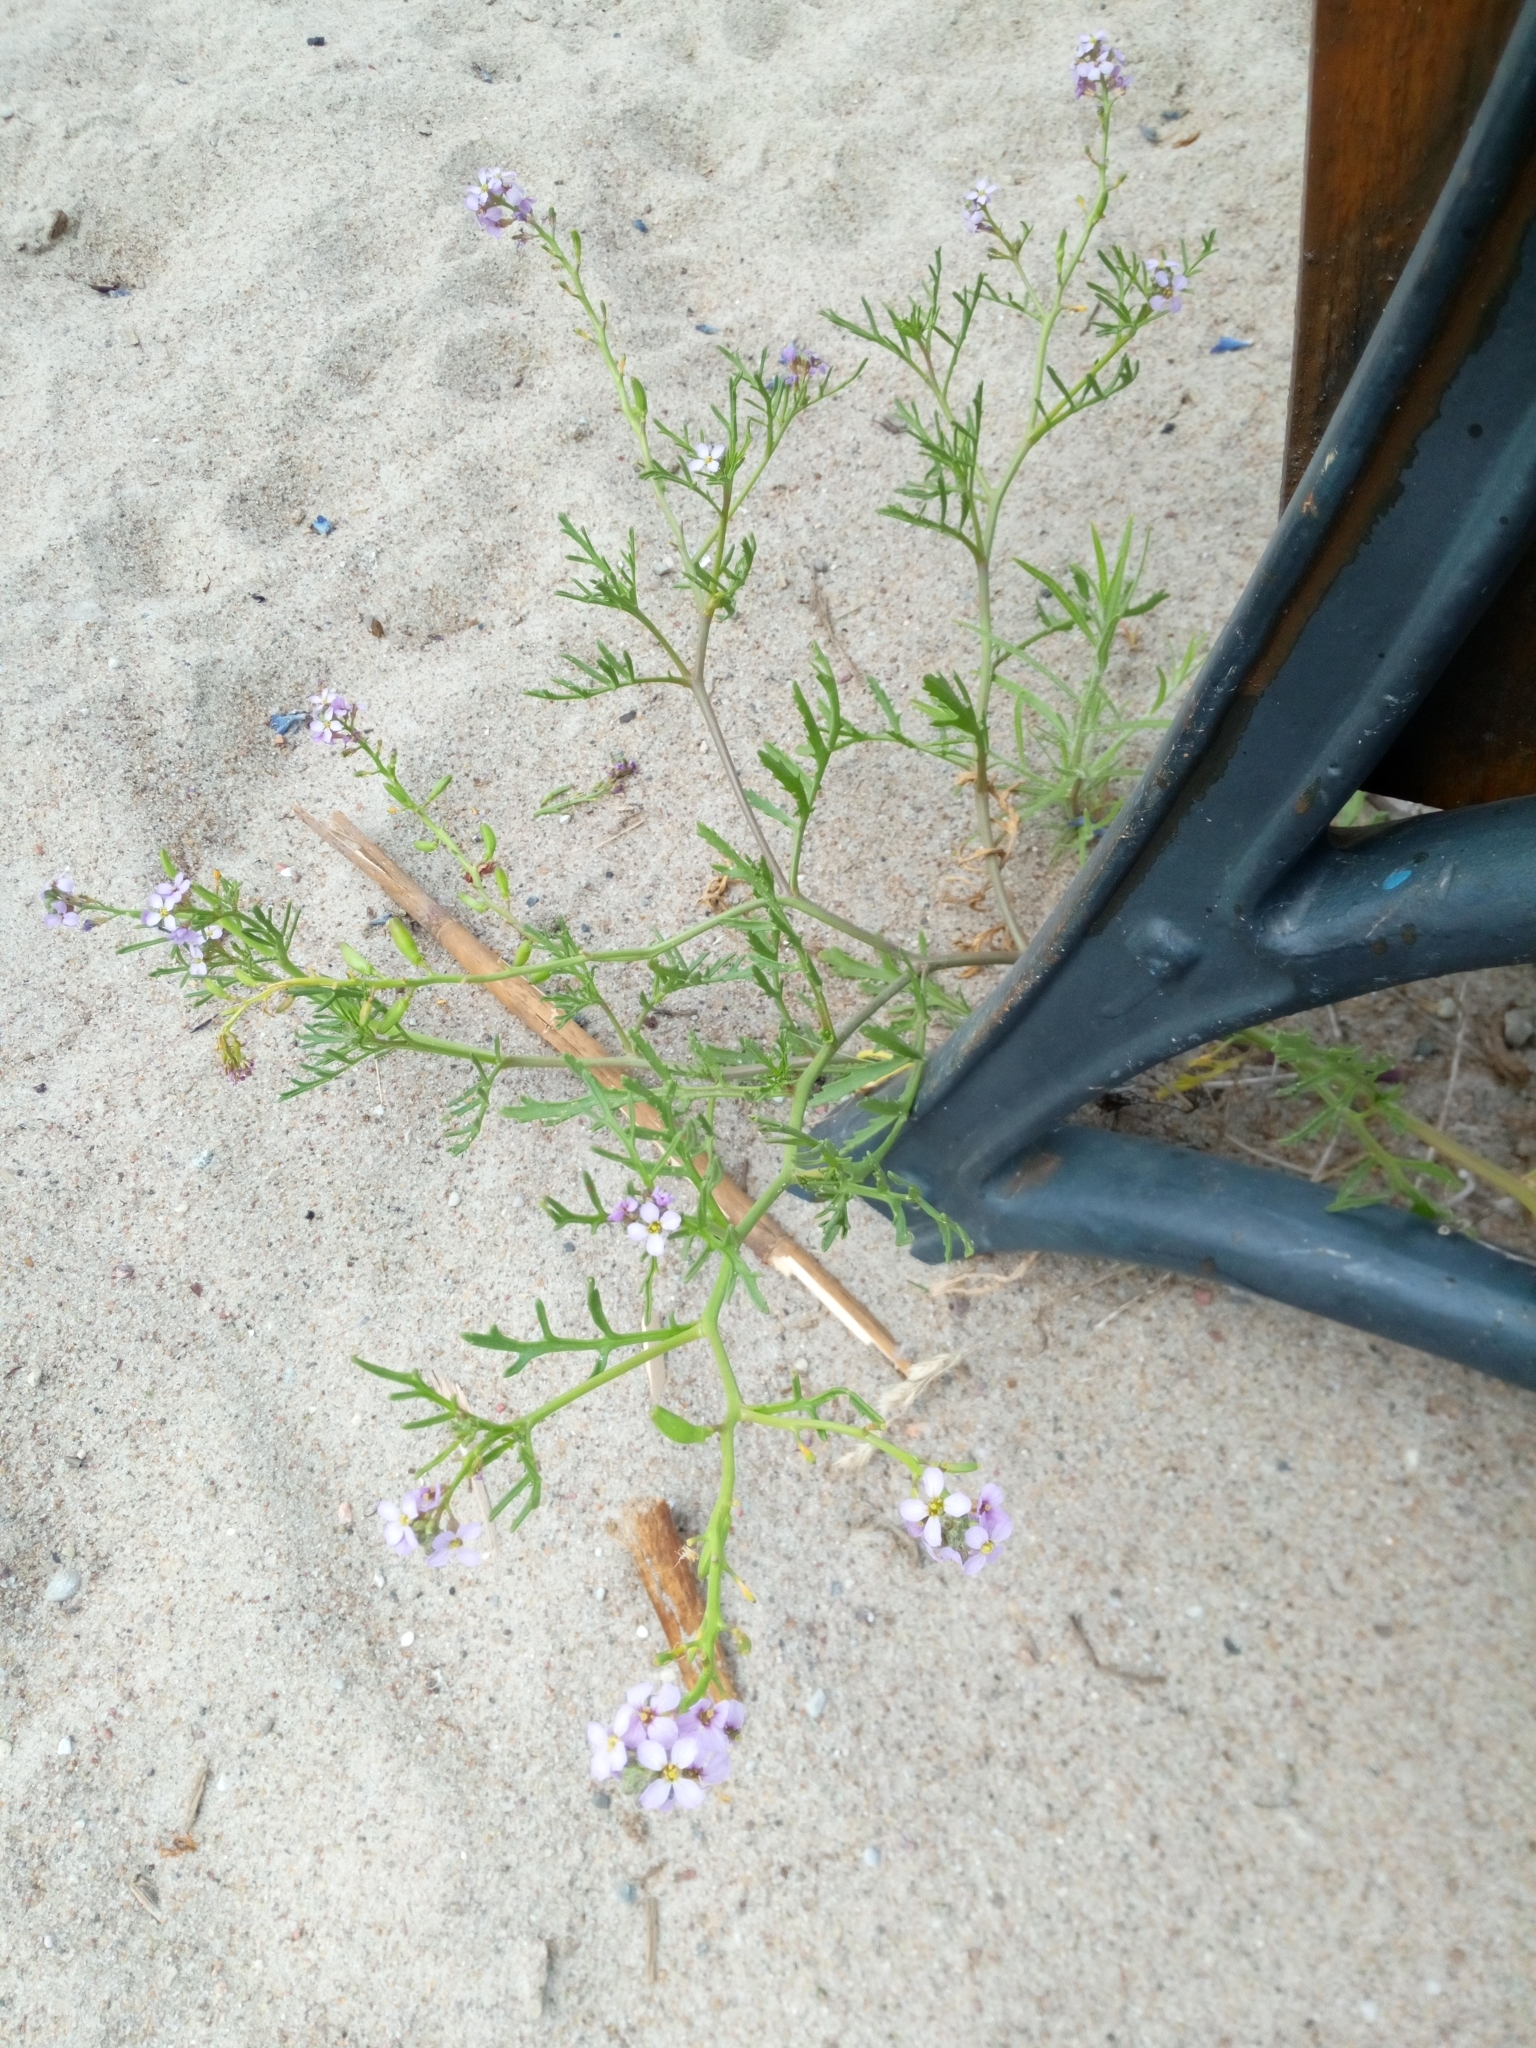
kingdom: Plantae
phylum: Tracheophyta
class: Magnoliopsida
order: Brassicales
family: Brassicaceae
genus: Cakile
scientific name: Cakile maritima
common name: Sea rocket
